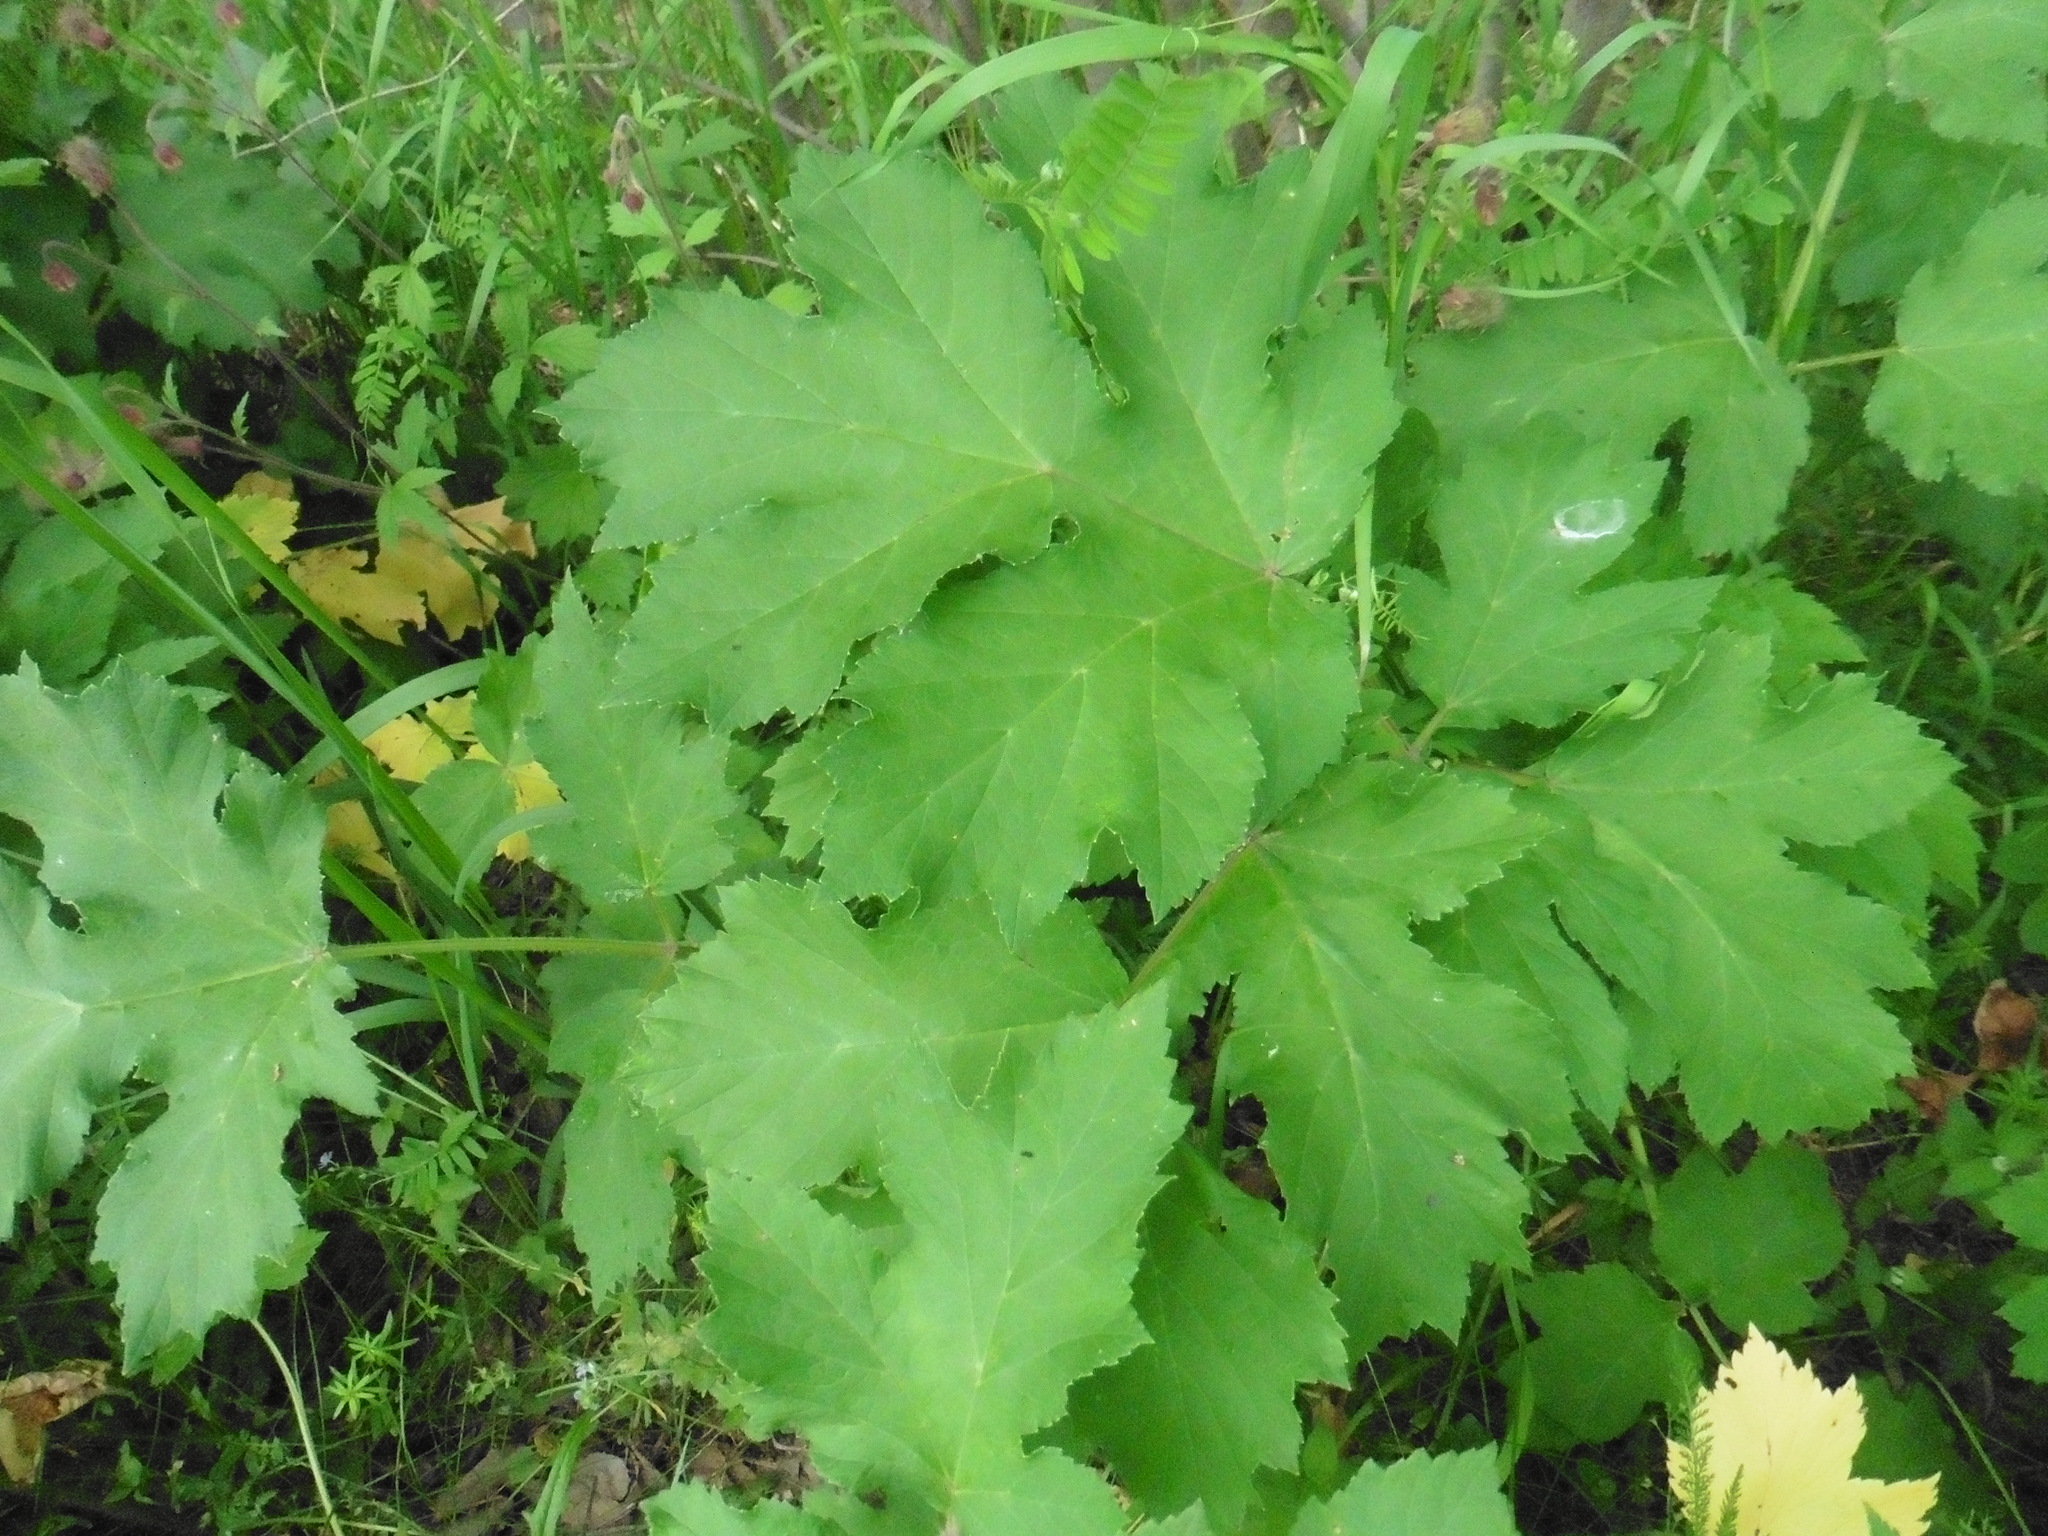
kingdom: Plantae
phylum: Tracheophyta
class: Magnoliopsida
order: Apiales
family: Apiaceae
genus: Heracleum
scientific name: Heracleum sphondylium
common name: Hogweed
